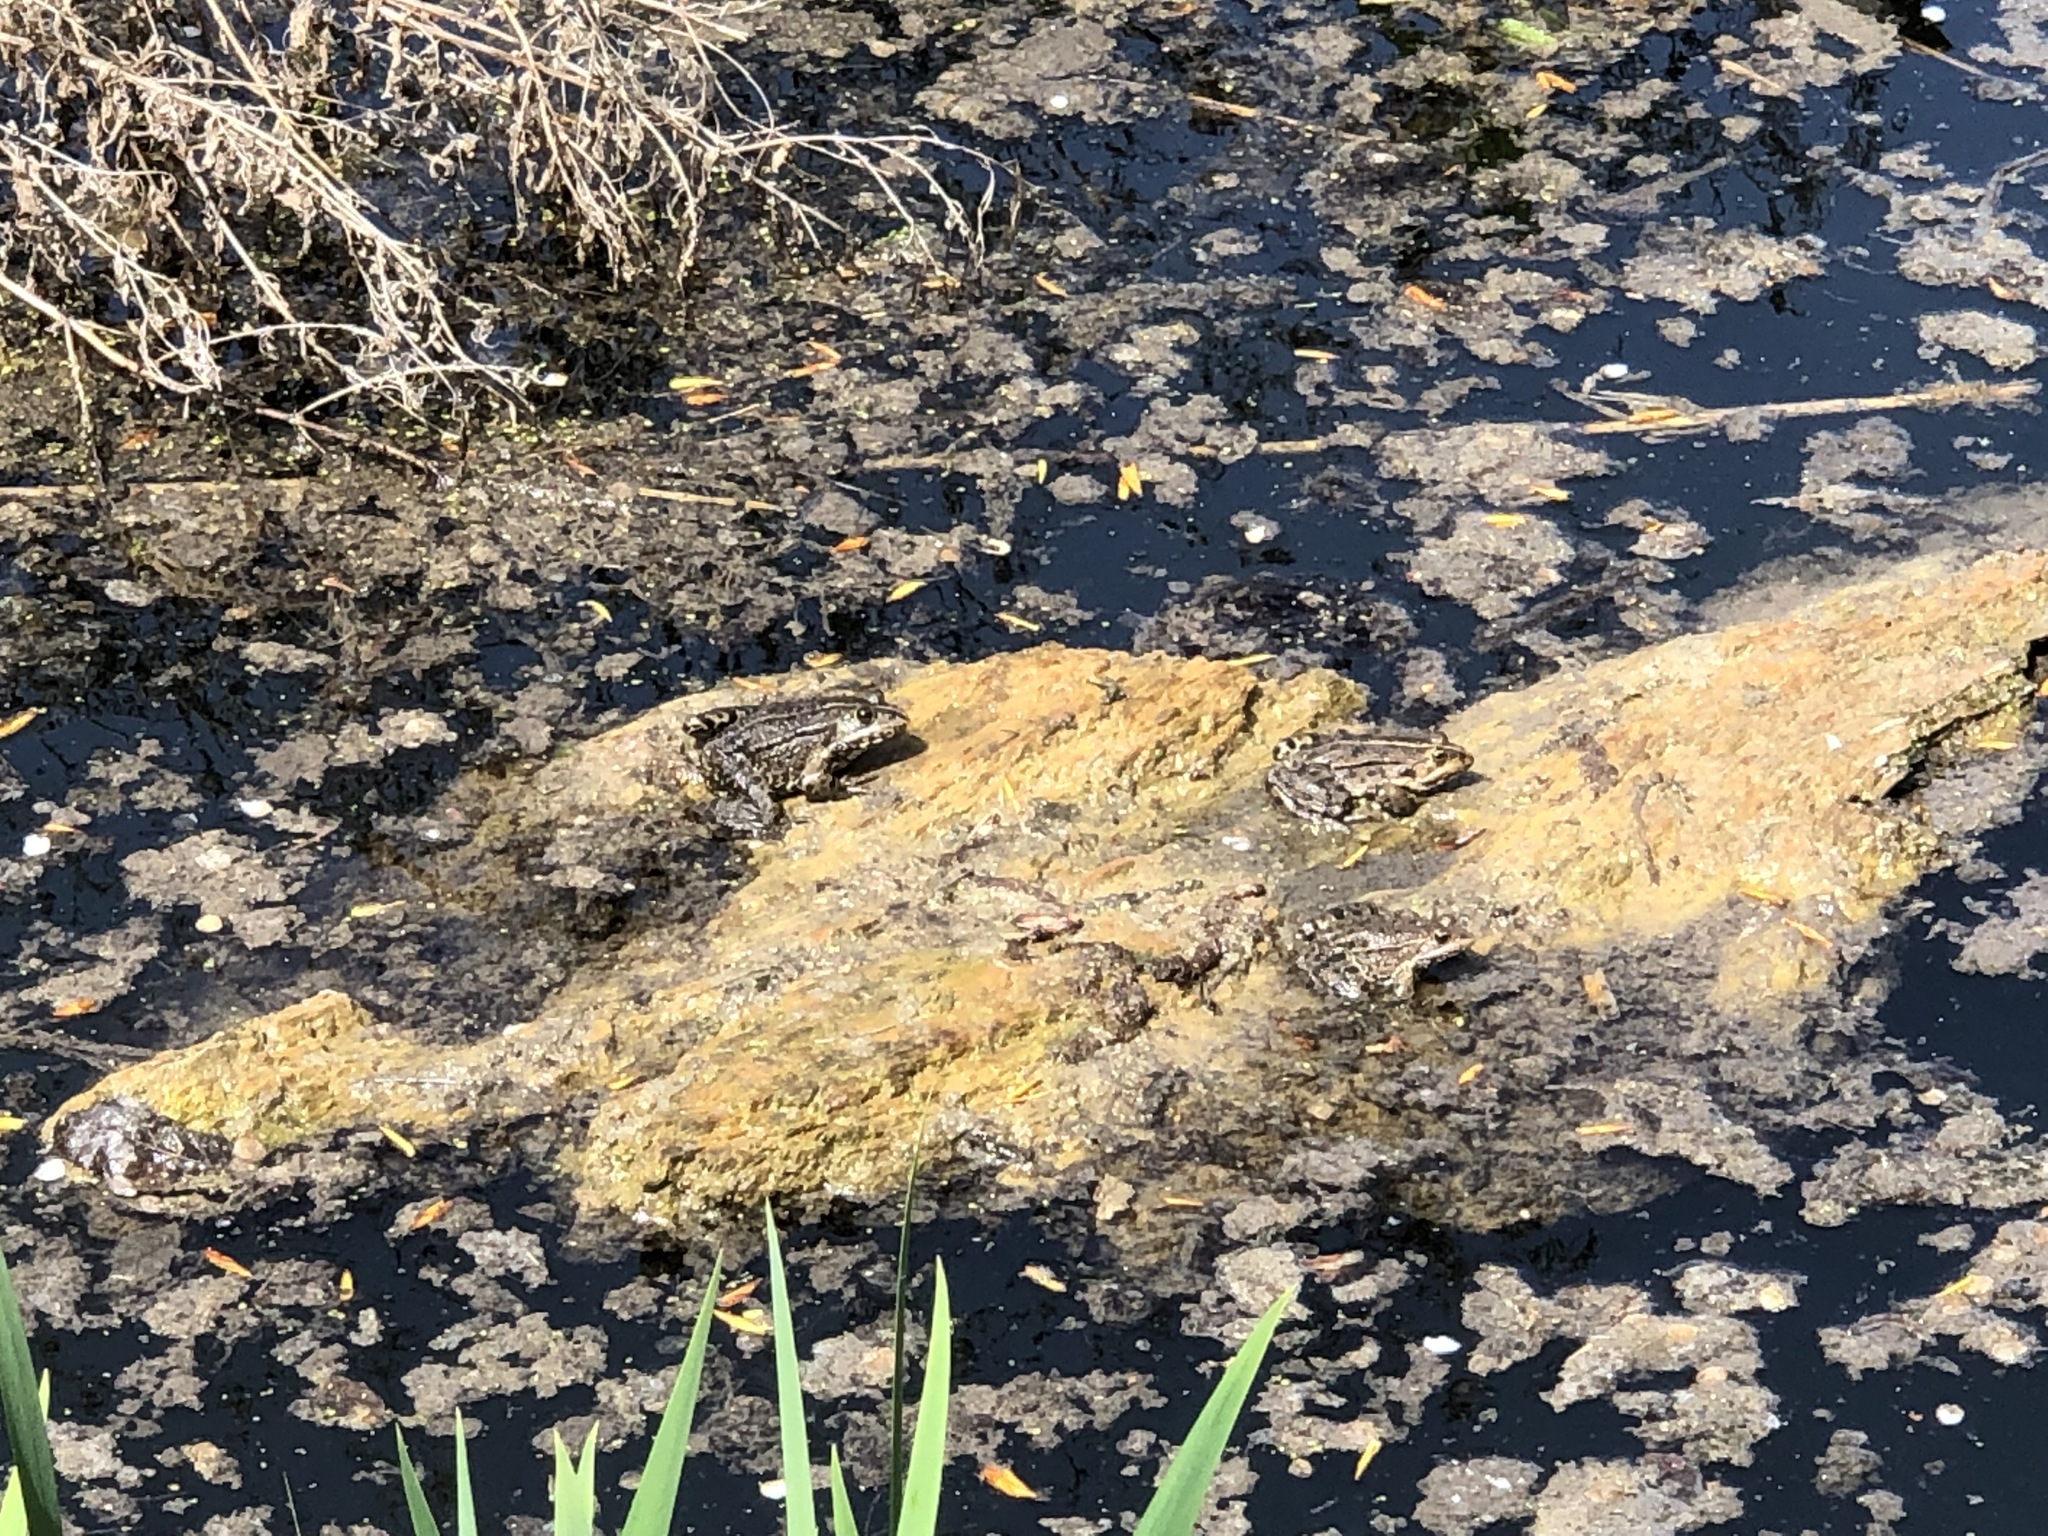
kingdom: Animalia
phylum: Chordata
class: Amphibia
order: Anura
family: Ranidae
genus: Pelophylax
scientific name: Pelophylax
